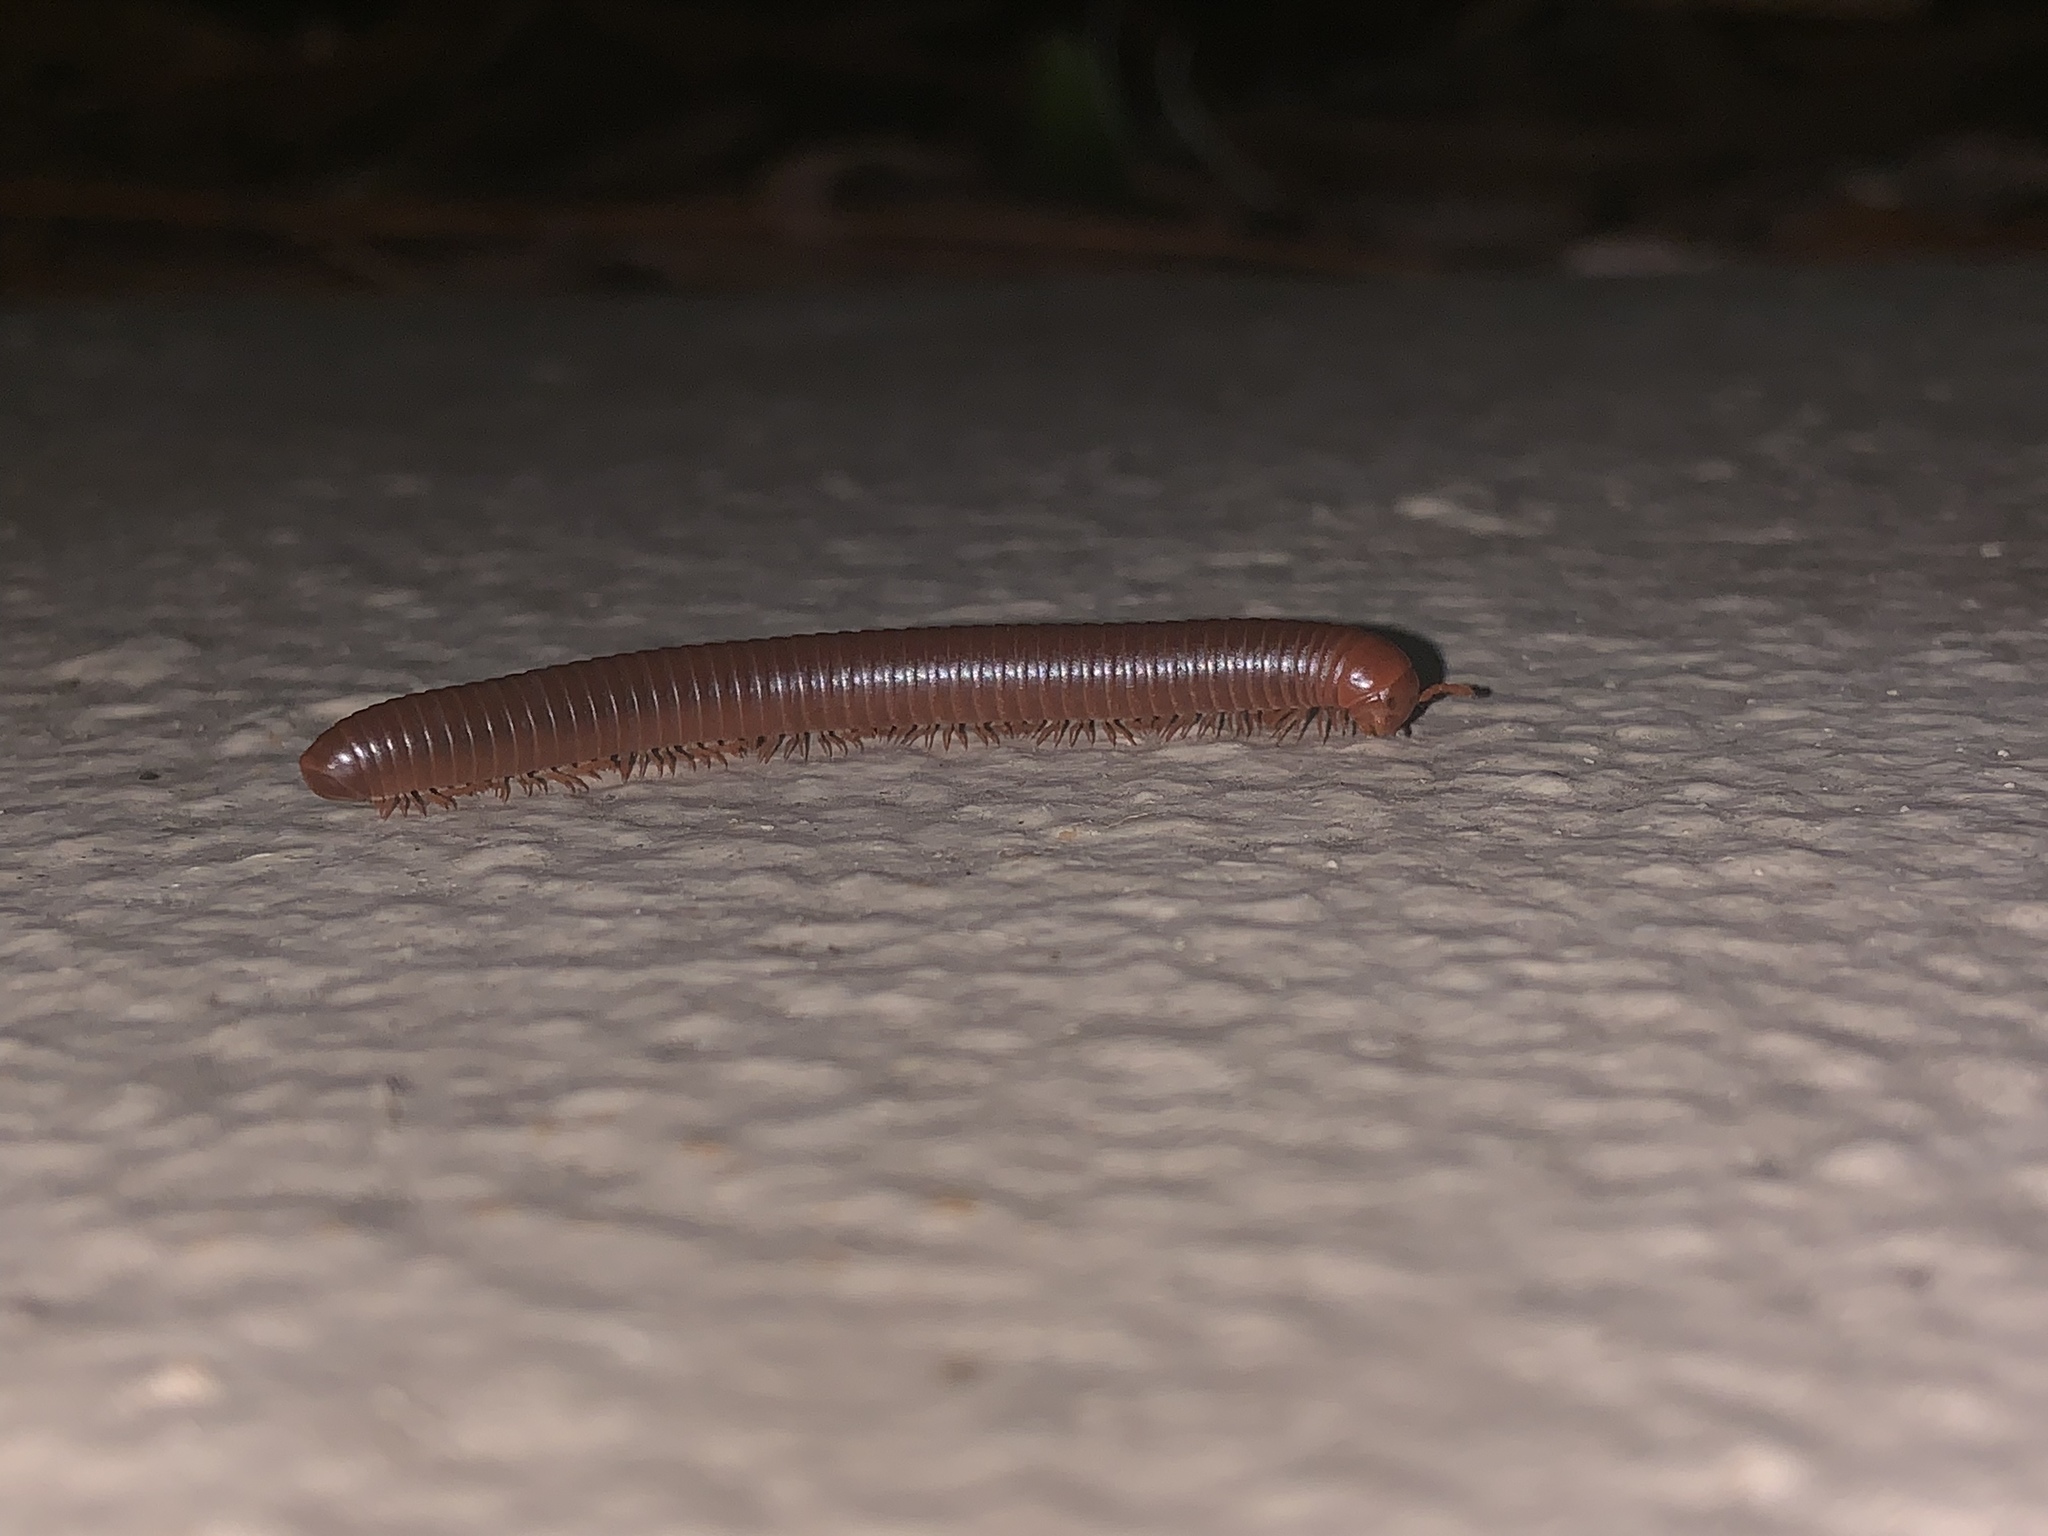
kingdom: Animalia
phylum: Arthropoda
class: Diplopoda
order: Spirobolida
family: Pachybolidae
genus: Trigoniulus
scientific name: Trigoniulus corallinus
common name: Millipede
